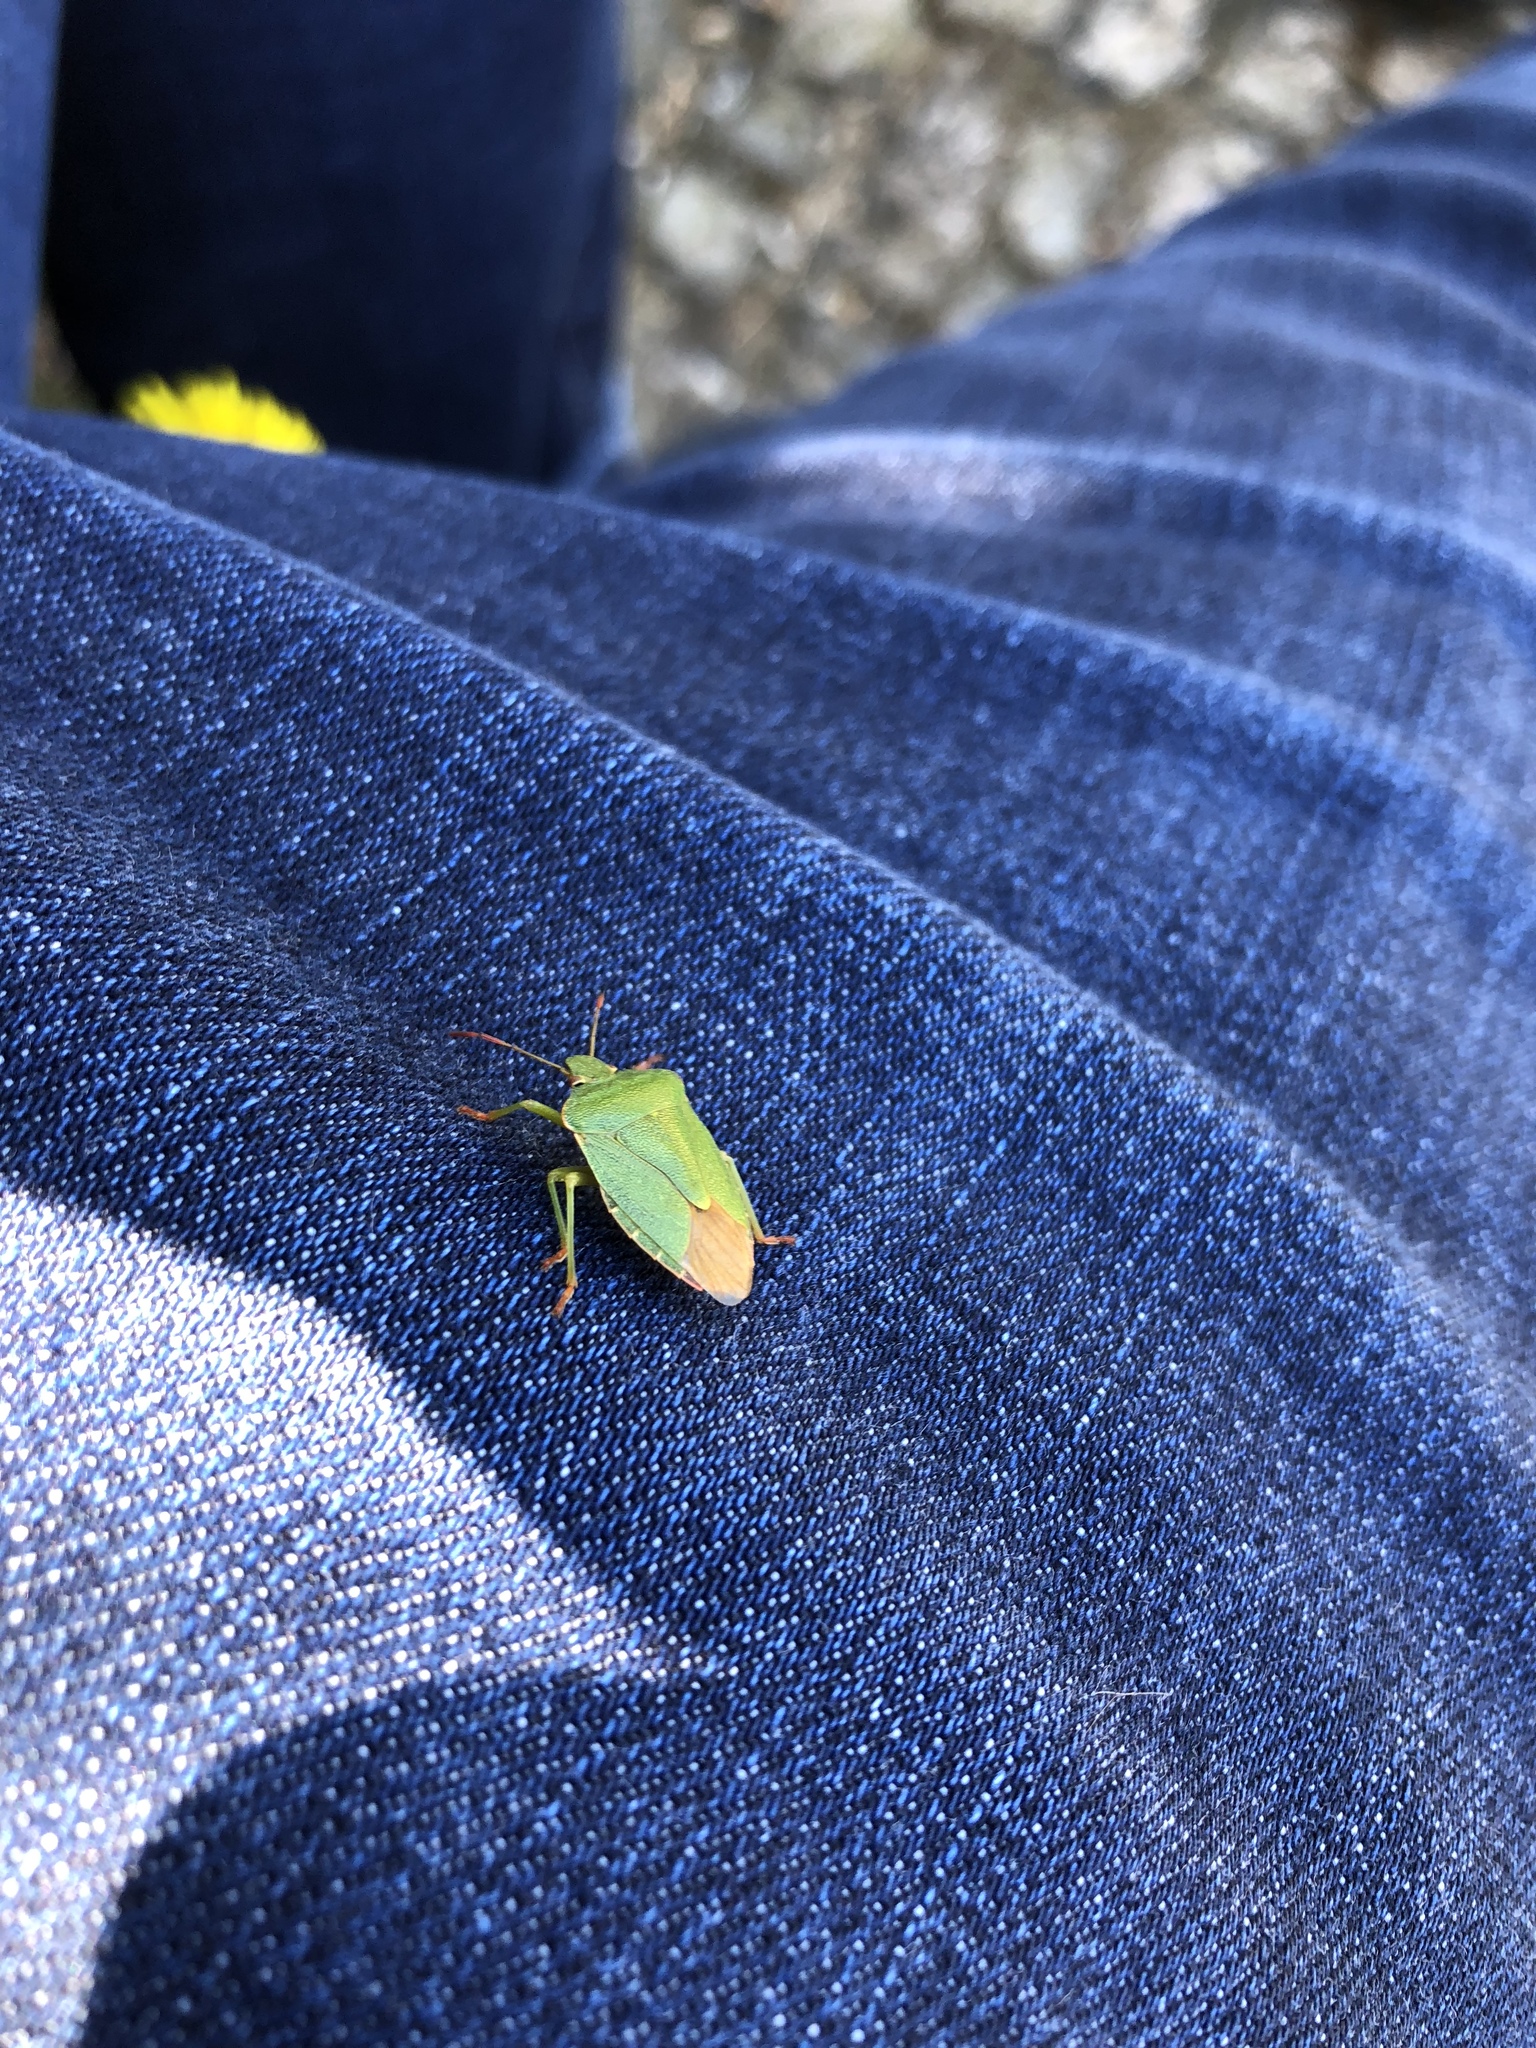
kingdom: Animalia
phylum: Arthropoda
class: Insecta
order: Hemiptera
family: Pentatomidae
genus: Palomena
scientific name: Palomena prasina
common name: Green shieldbug
